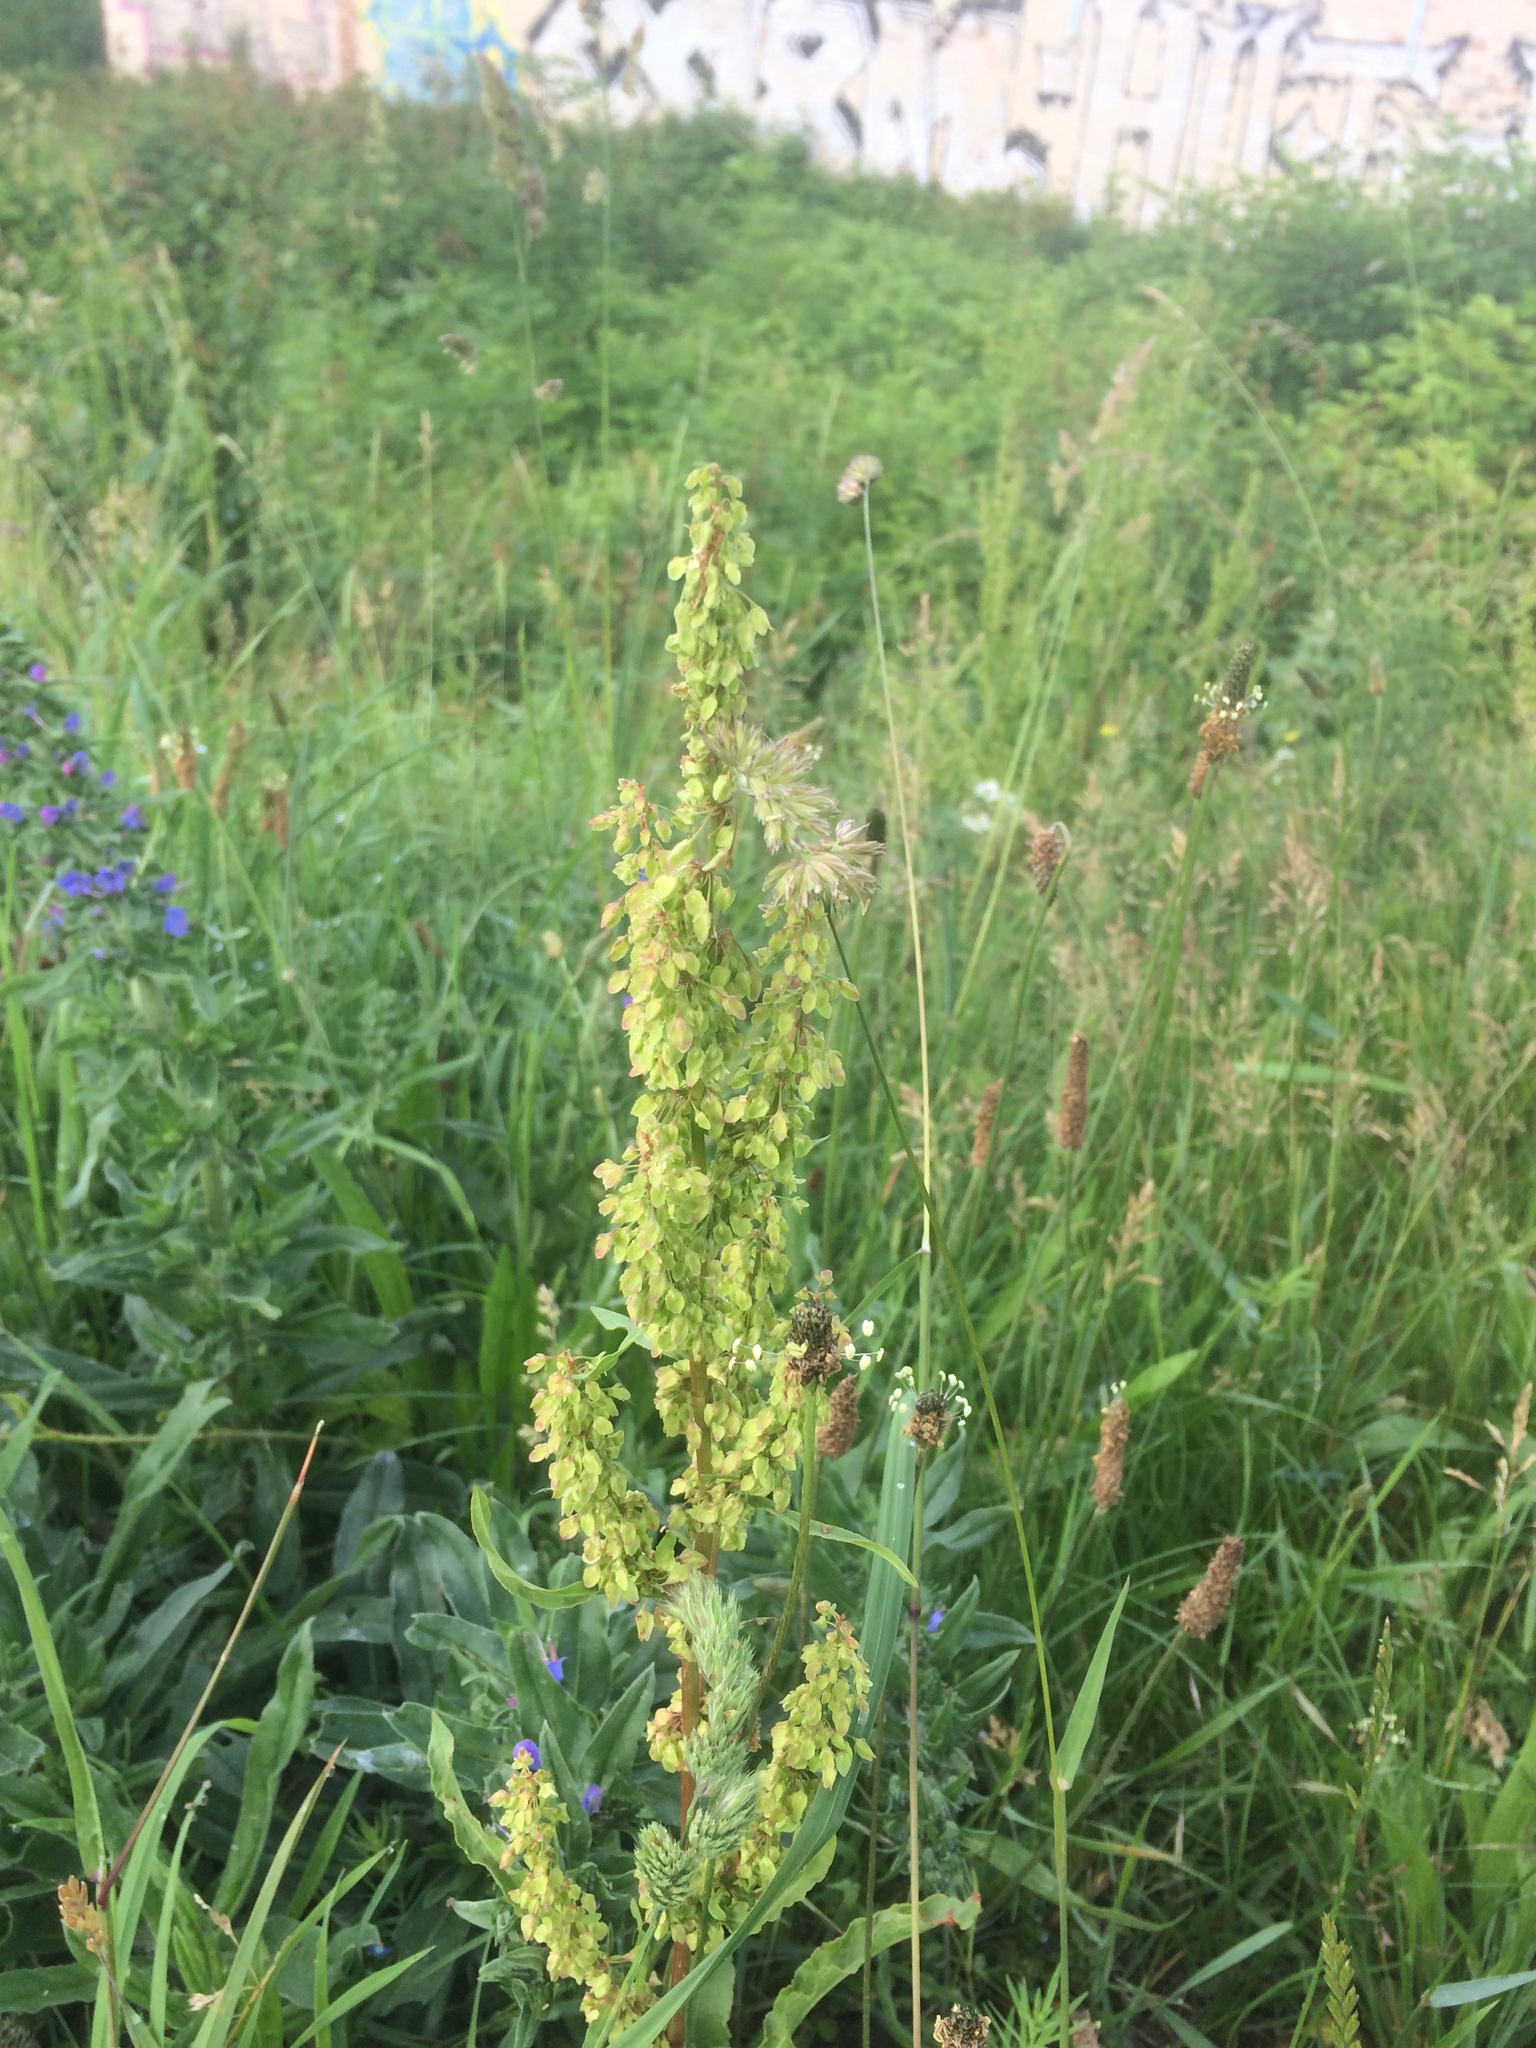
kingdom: Plantae
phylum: Tracheophyta
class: Magnoliopsida
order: Caryophyllales
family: Polygonaceae
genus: Rumex
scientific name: Rumex crispus
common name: Curled dock
